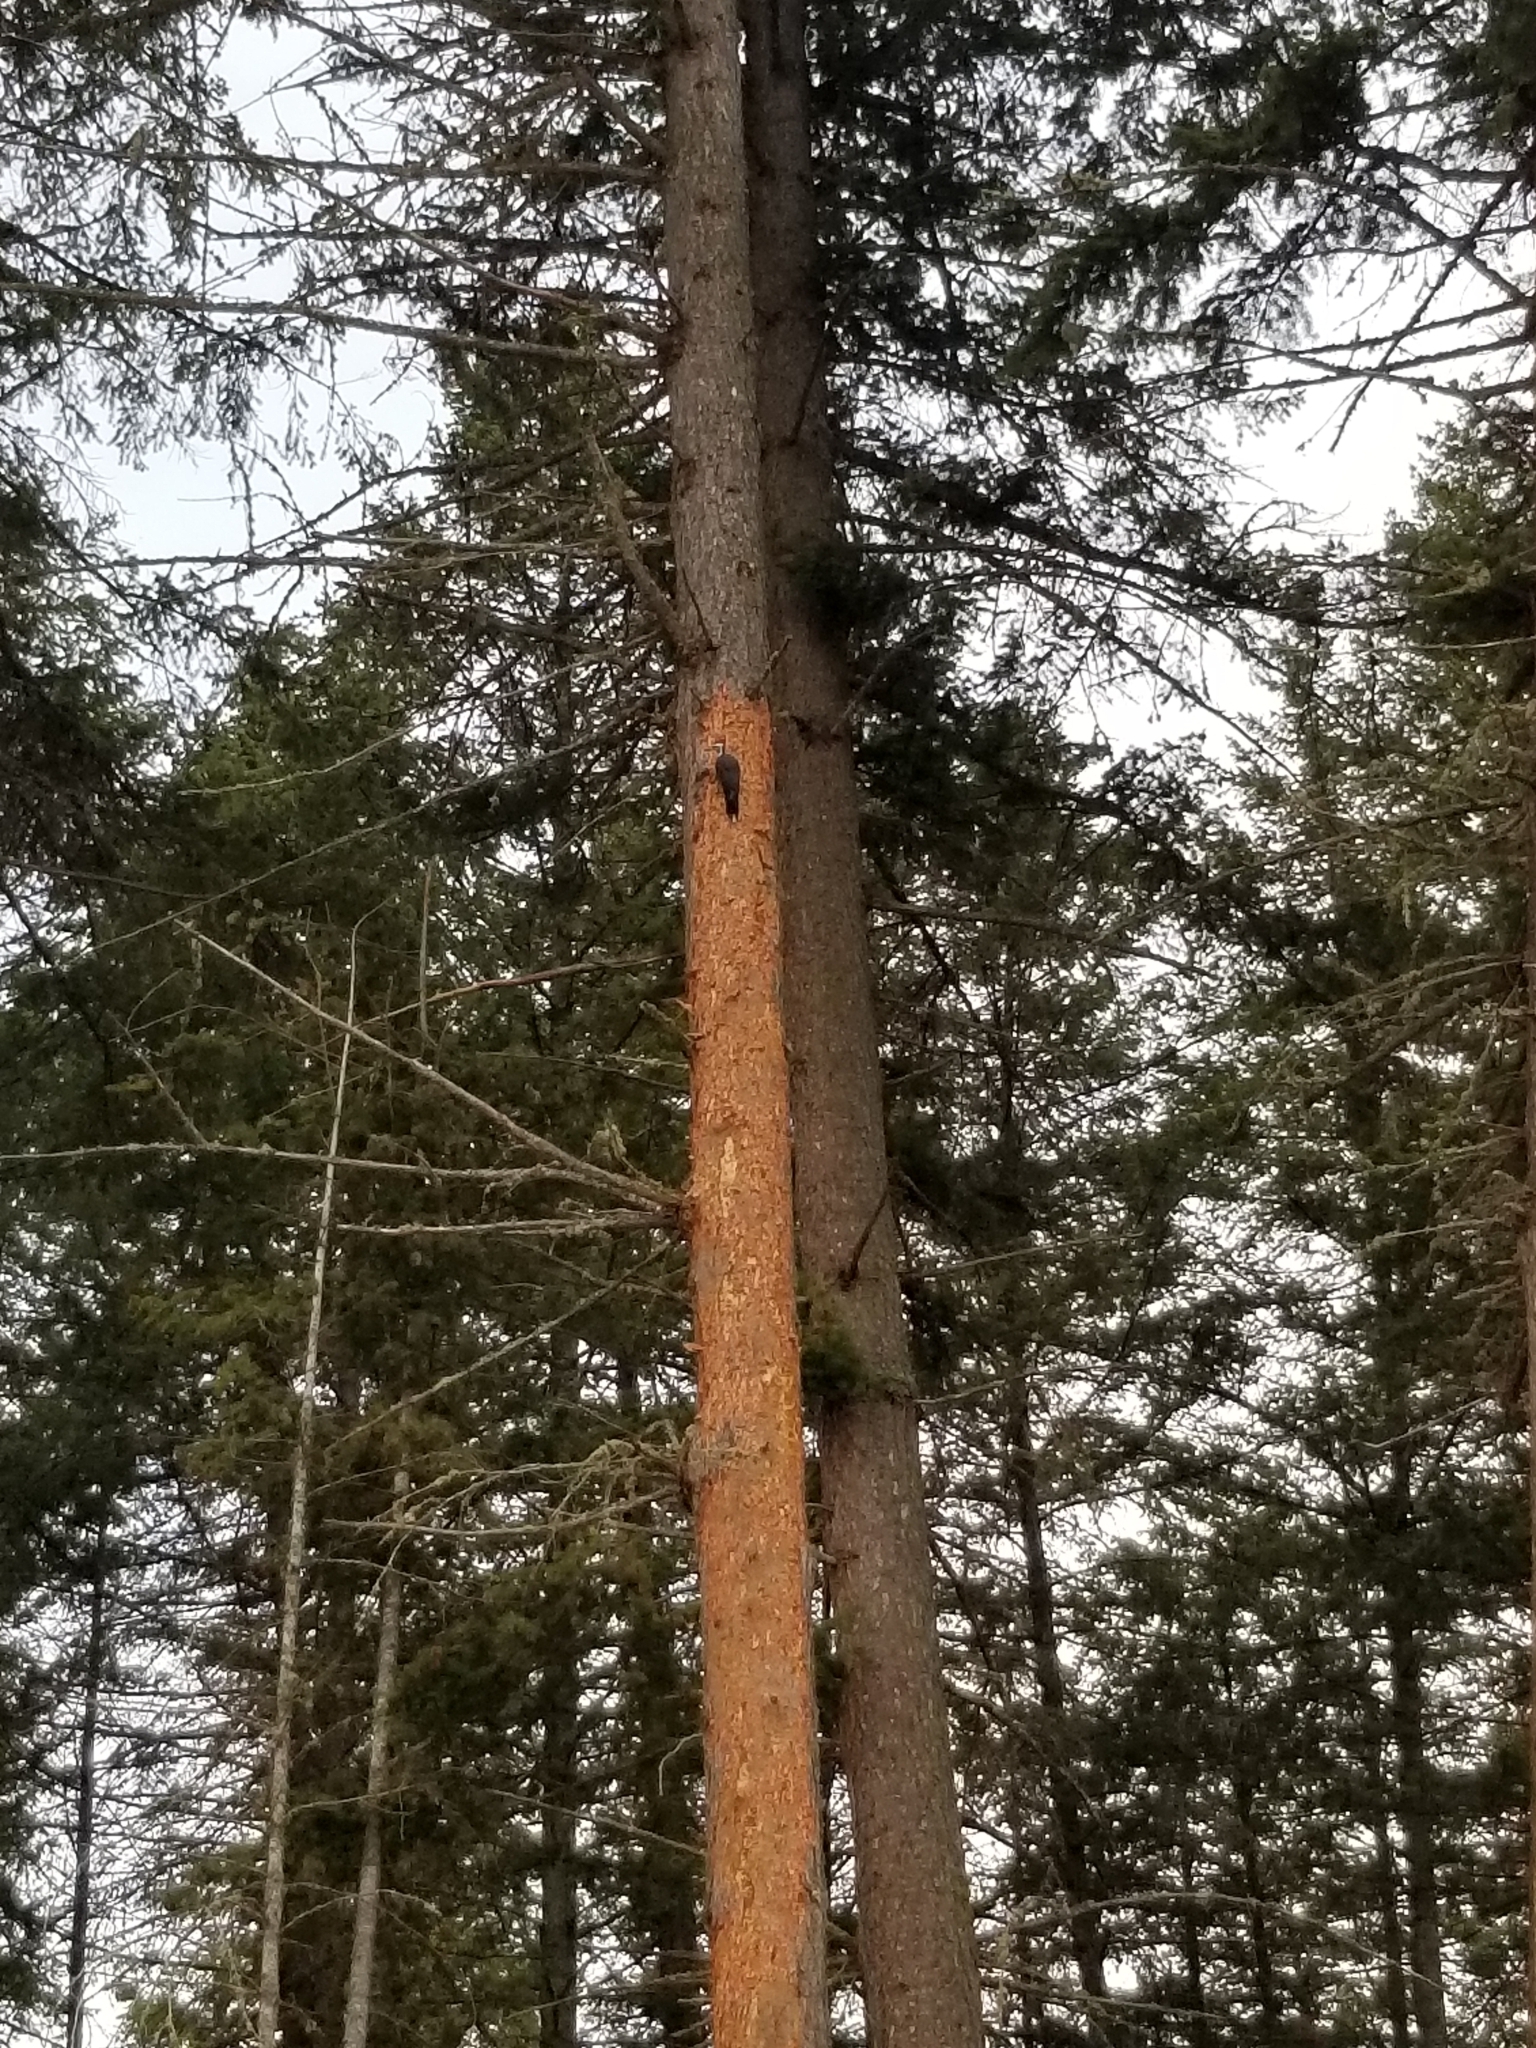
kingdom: Animalia
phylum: Chordata
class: Aves
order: Piciformes
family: Picidae
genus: Dryocopus
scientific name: Dryocopus pileatus
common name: Pileated woodpecker
